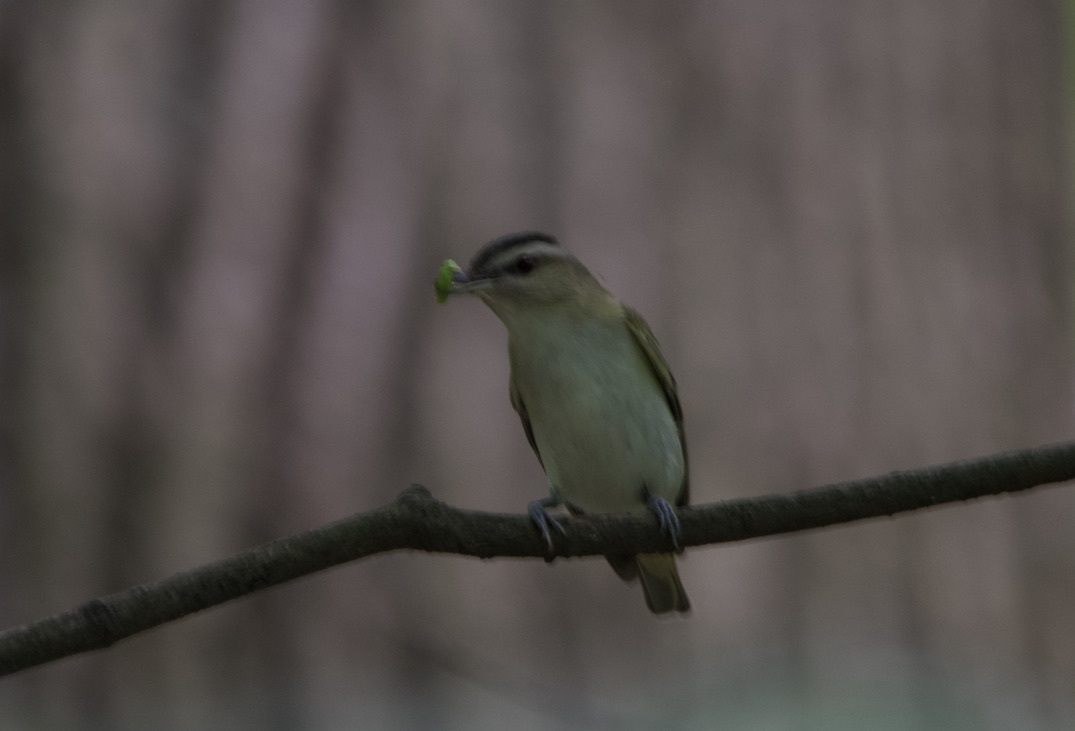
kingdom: Animalia
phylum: Chordata
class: Aves
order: Passeriformes
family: Vireonidae
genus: Vireo
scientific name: Vireo olivaceus
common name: Red-eyed vireo
